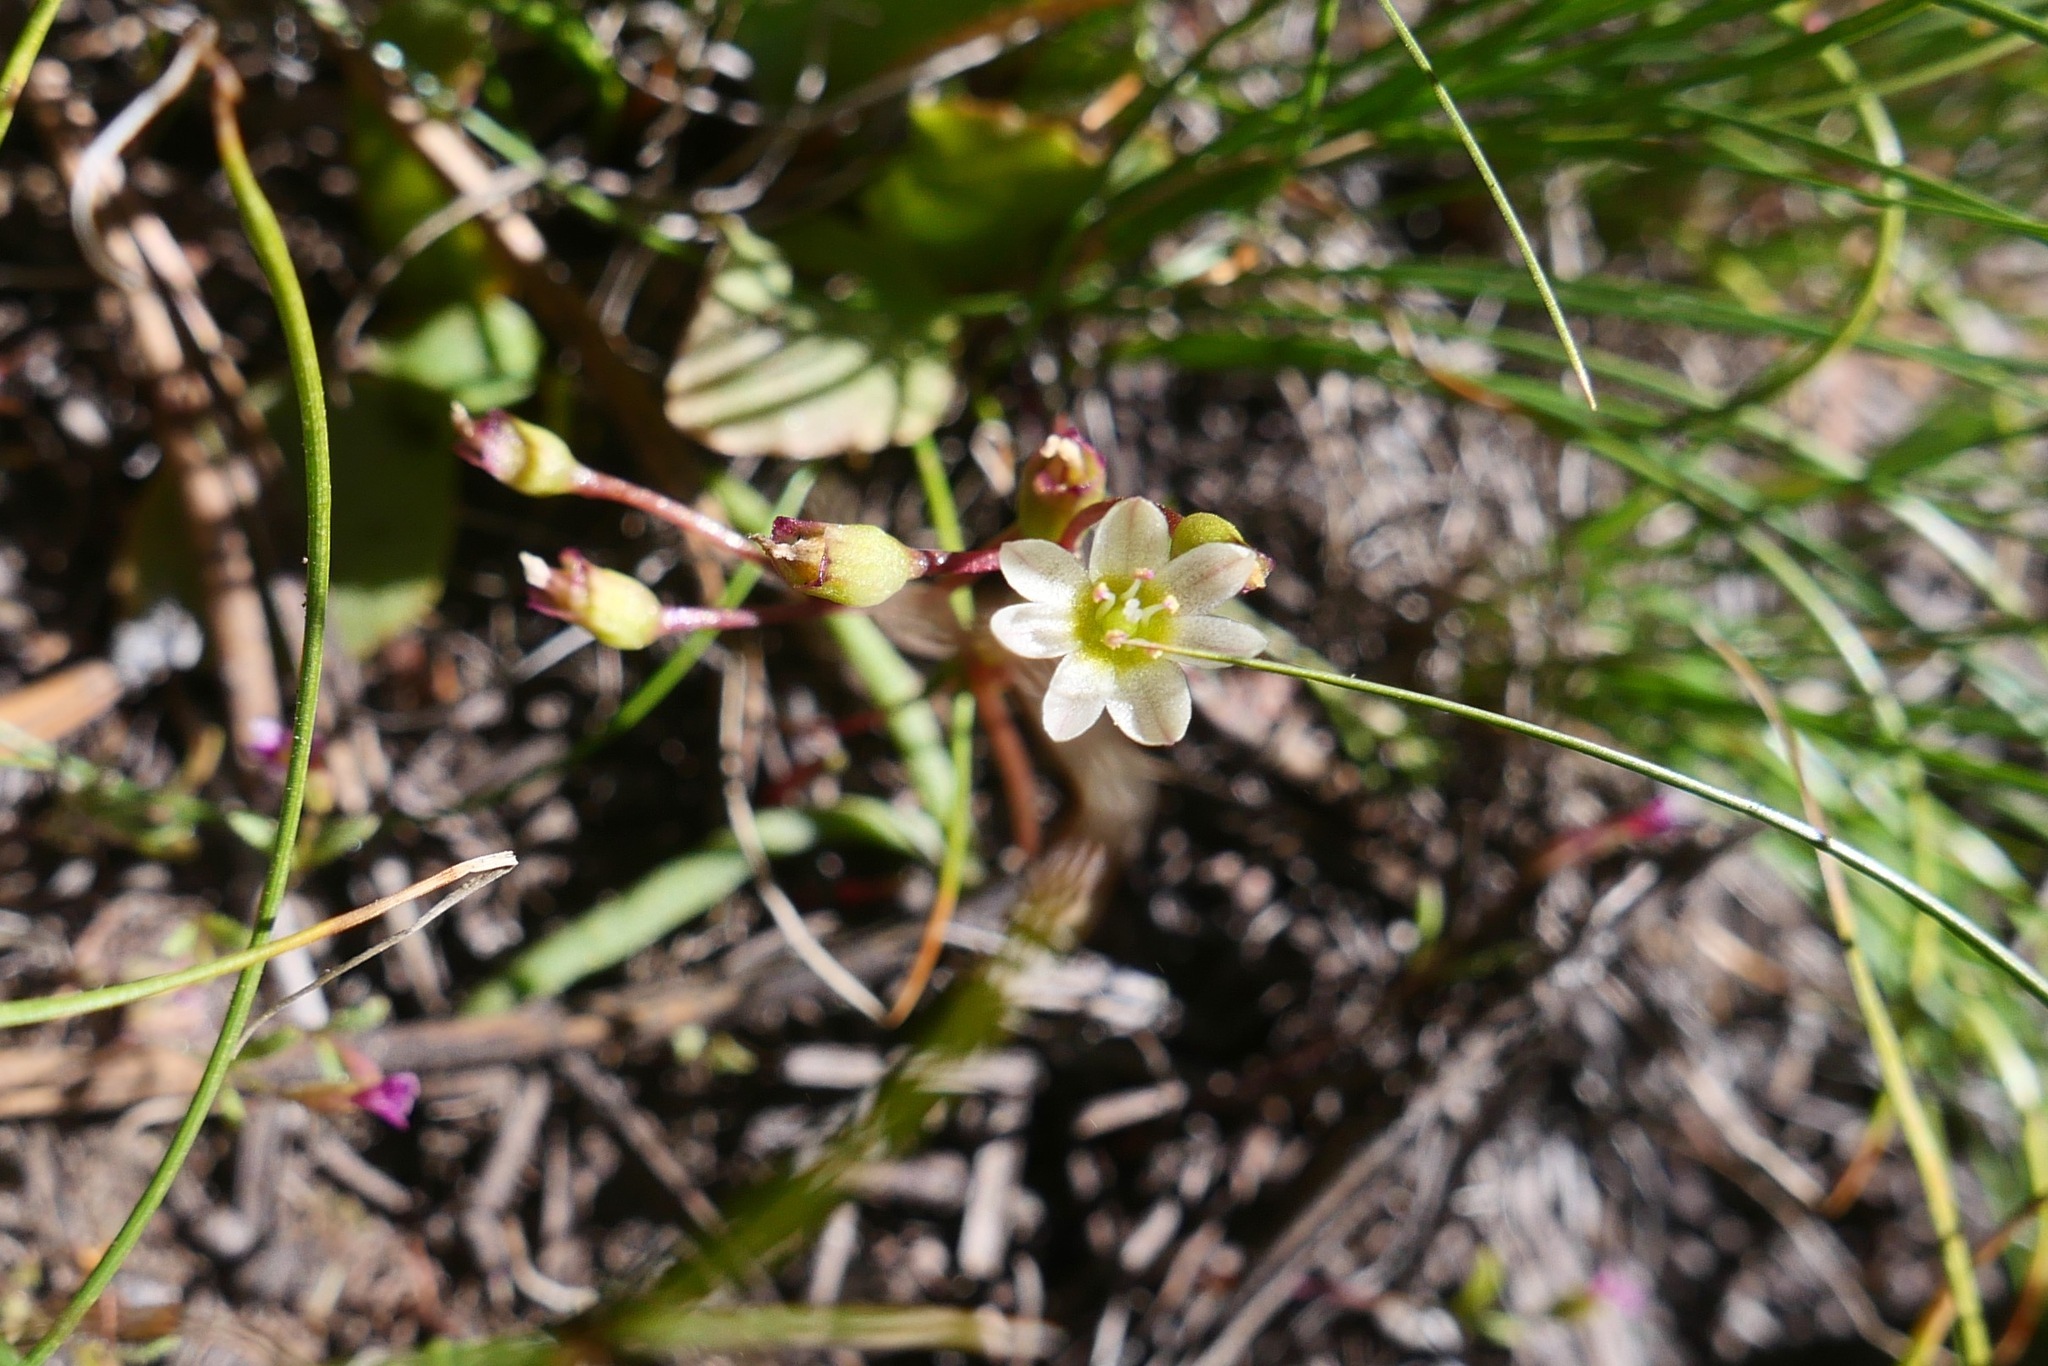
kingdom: Plantae
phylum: Tracheophyta
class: Magnoliopsida
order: Caryophyllales
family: Montiaceae
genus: Lewisia
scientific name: Lewisia triphylla
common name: Three-leaved bitterroot
